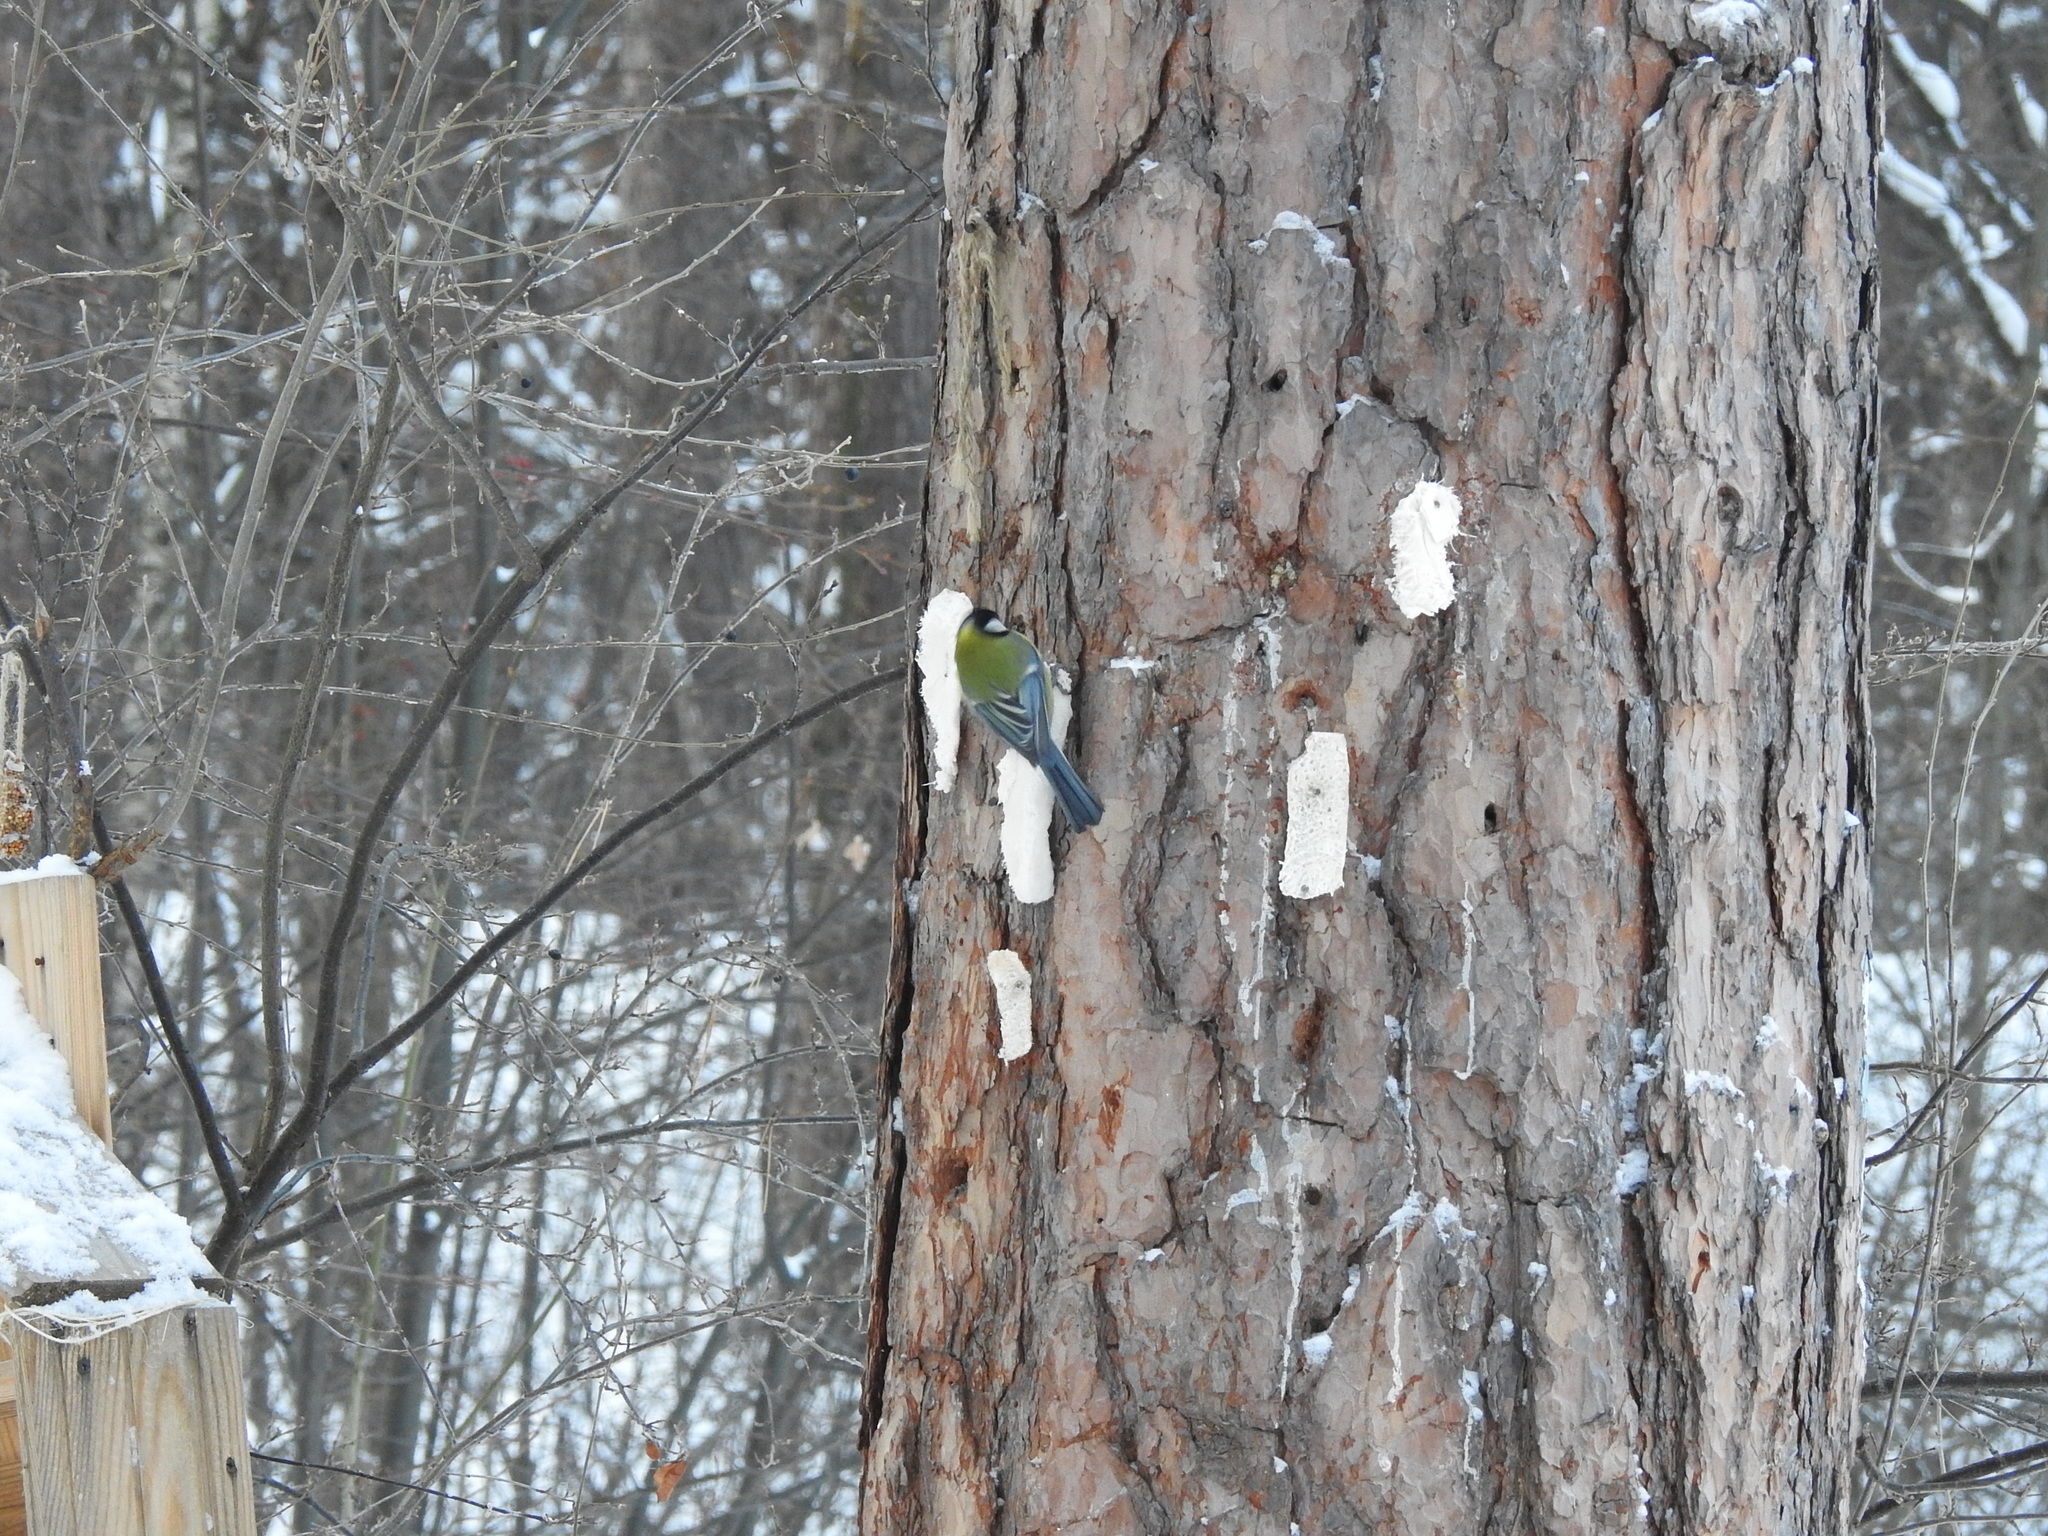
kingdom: Animalia
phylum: Chordata
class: Aves
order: Passeriformes
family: Paridae
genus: Parus
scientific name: Parus major
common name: Great tit
